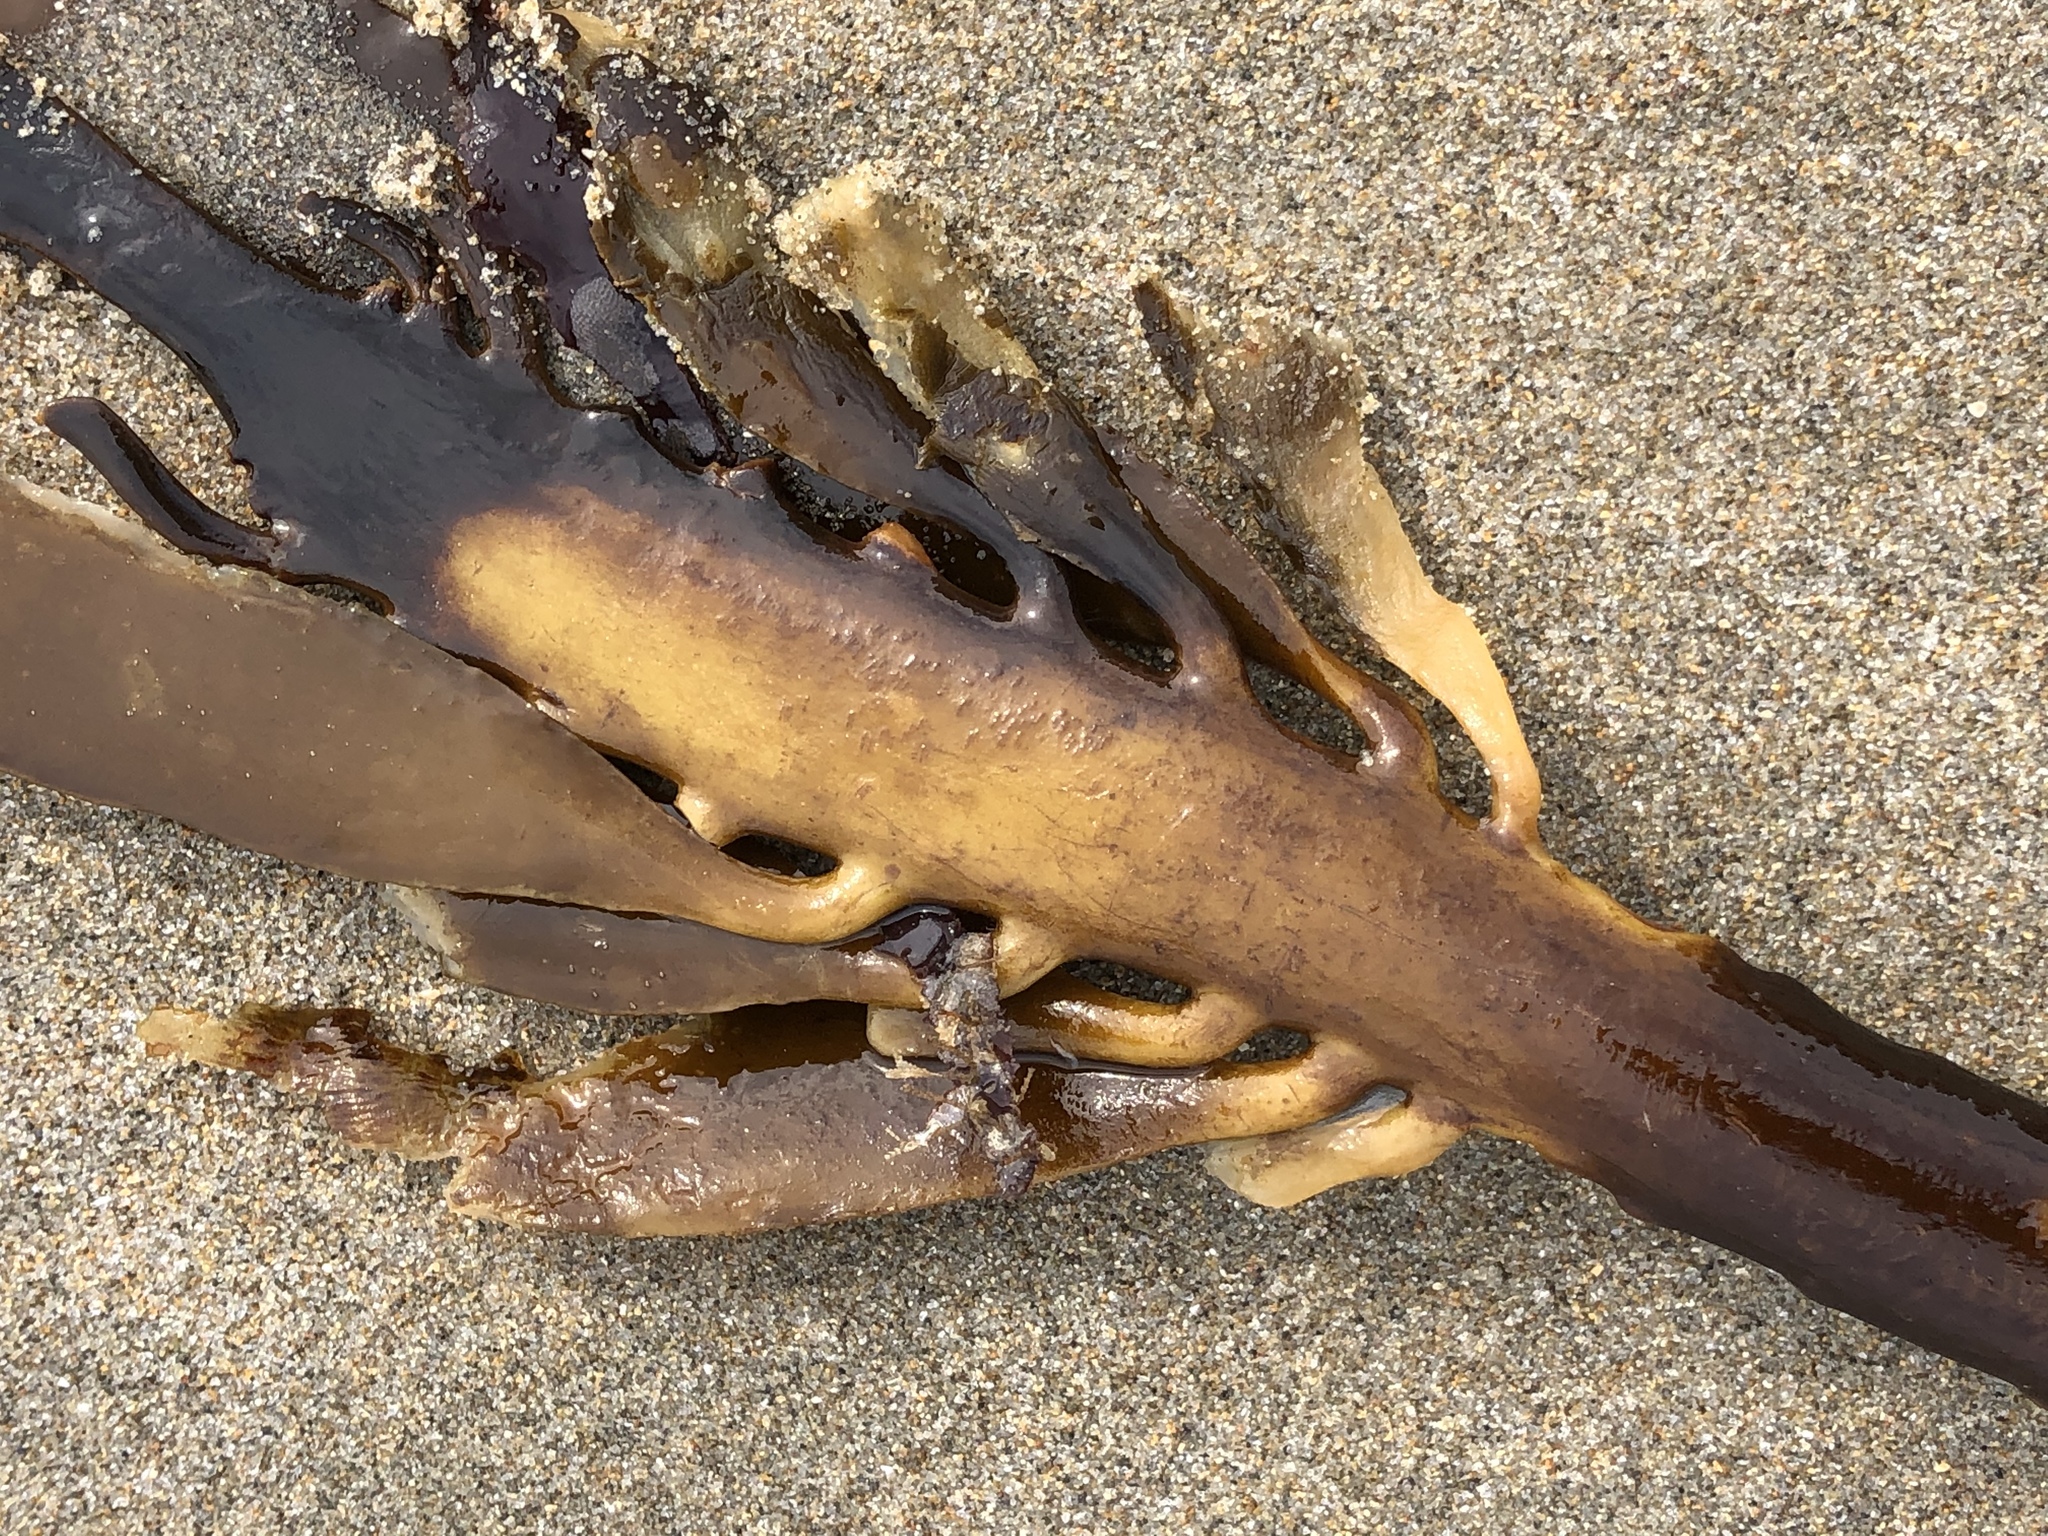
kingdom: Chromista
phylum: Ochrophyta
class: Phaeophyceae
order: Laminariales
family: Alariaceae
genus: Pterygophora
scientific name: Pterygophora californica
